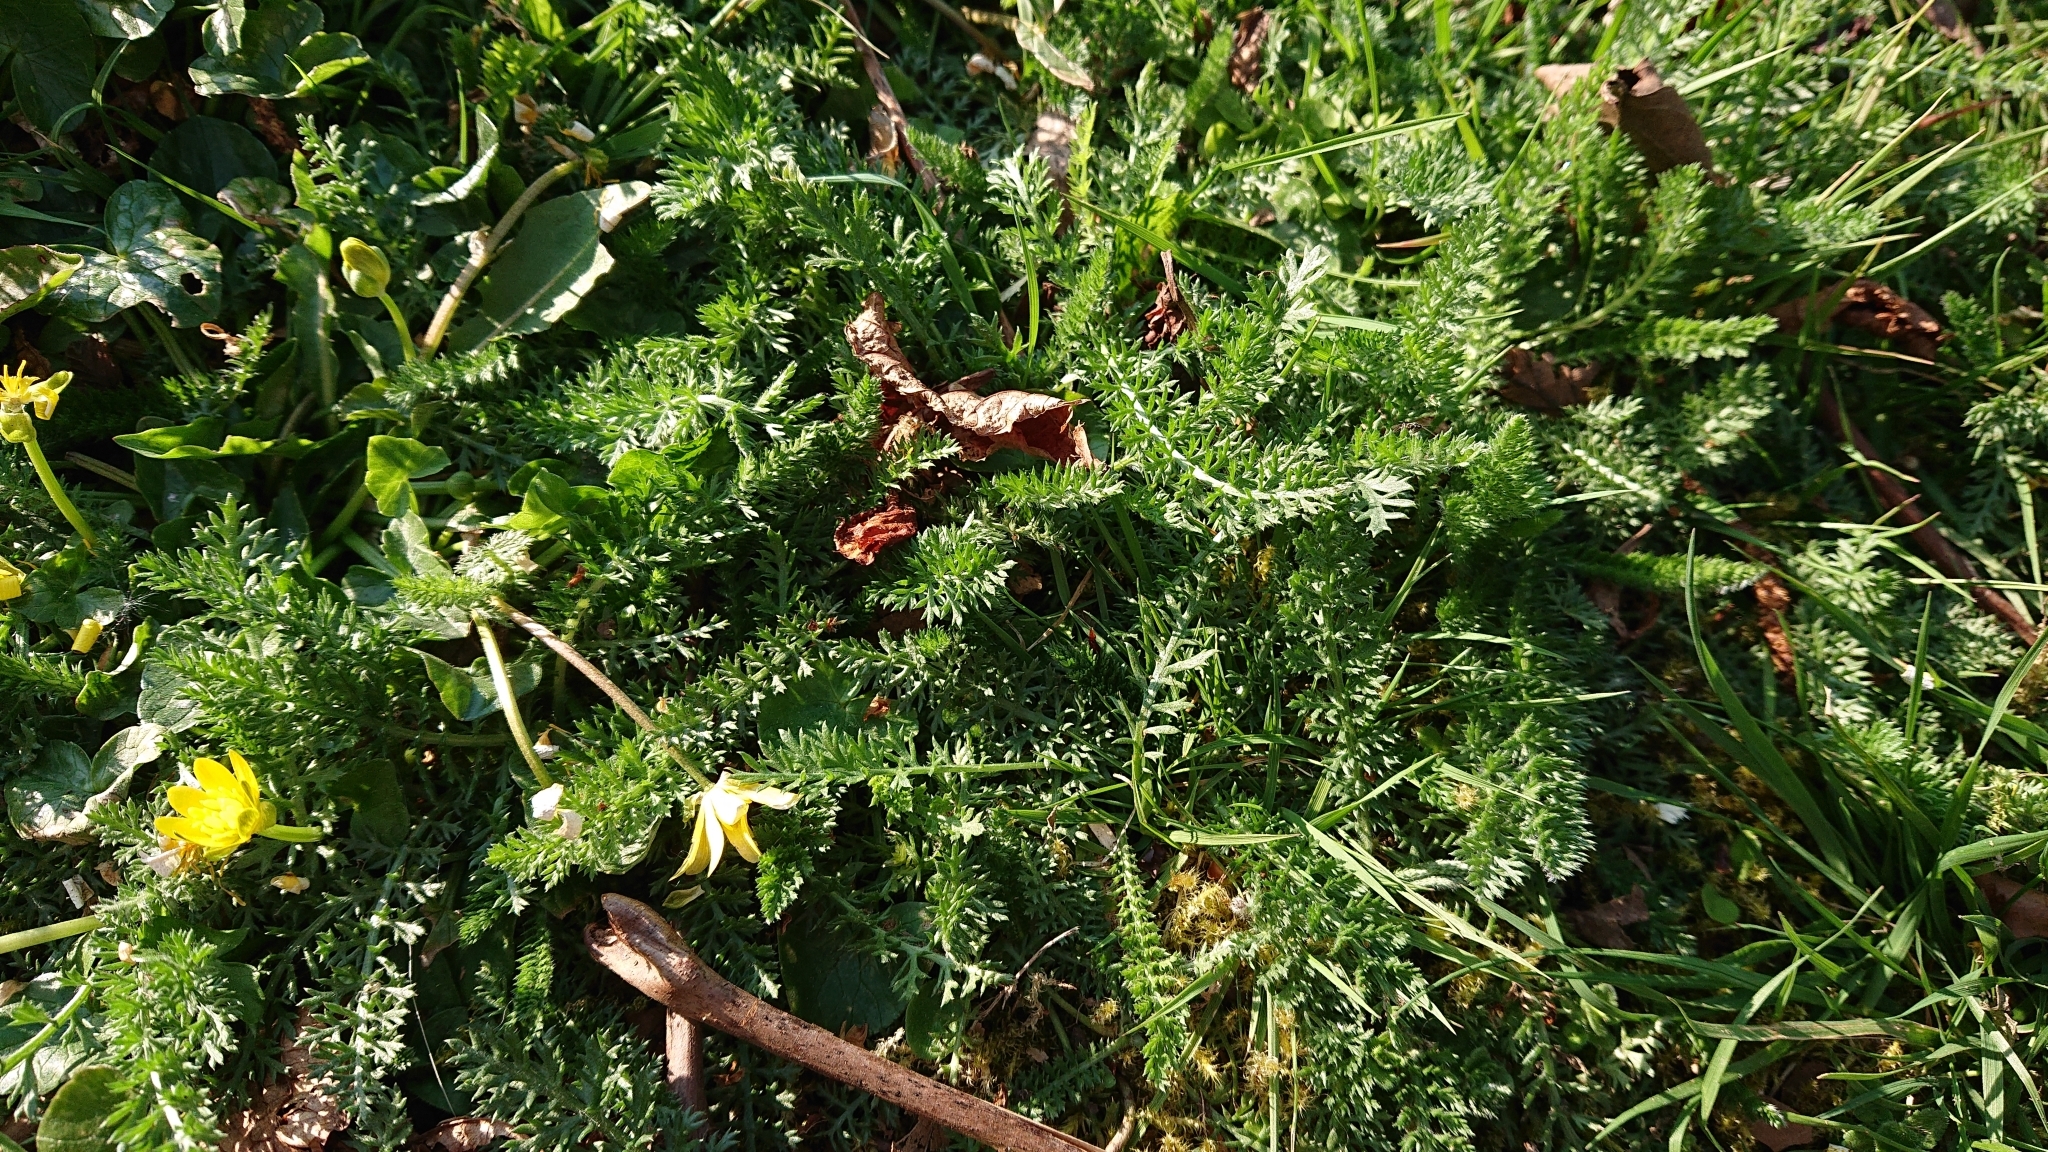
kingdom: Plantae
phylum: Tracheophyta
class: Magnoliopsida
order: Asterales
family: Asteraceae
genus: Achillea
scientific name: Achillea millefolium
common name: Yarrow
